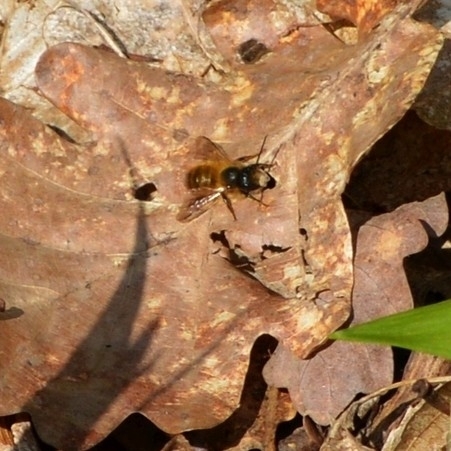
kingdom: Animalia
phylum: Arthropoda
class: Insecta
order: Hymenoptera
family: Megachilidae
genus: Osmia
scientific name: Osmia bicornis
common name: Red mason bee
